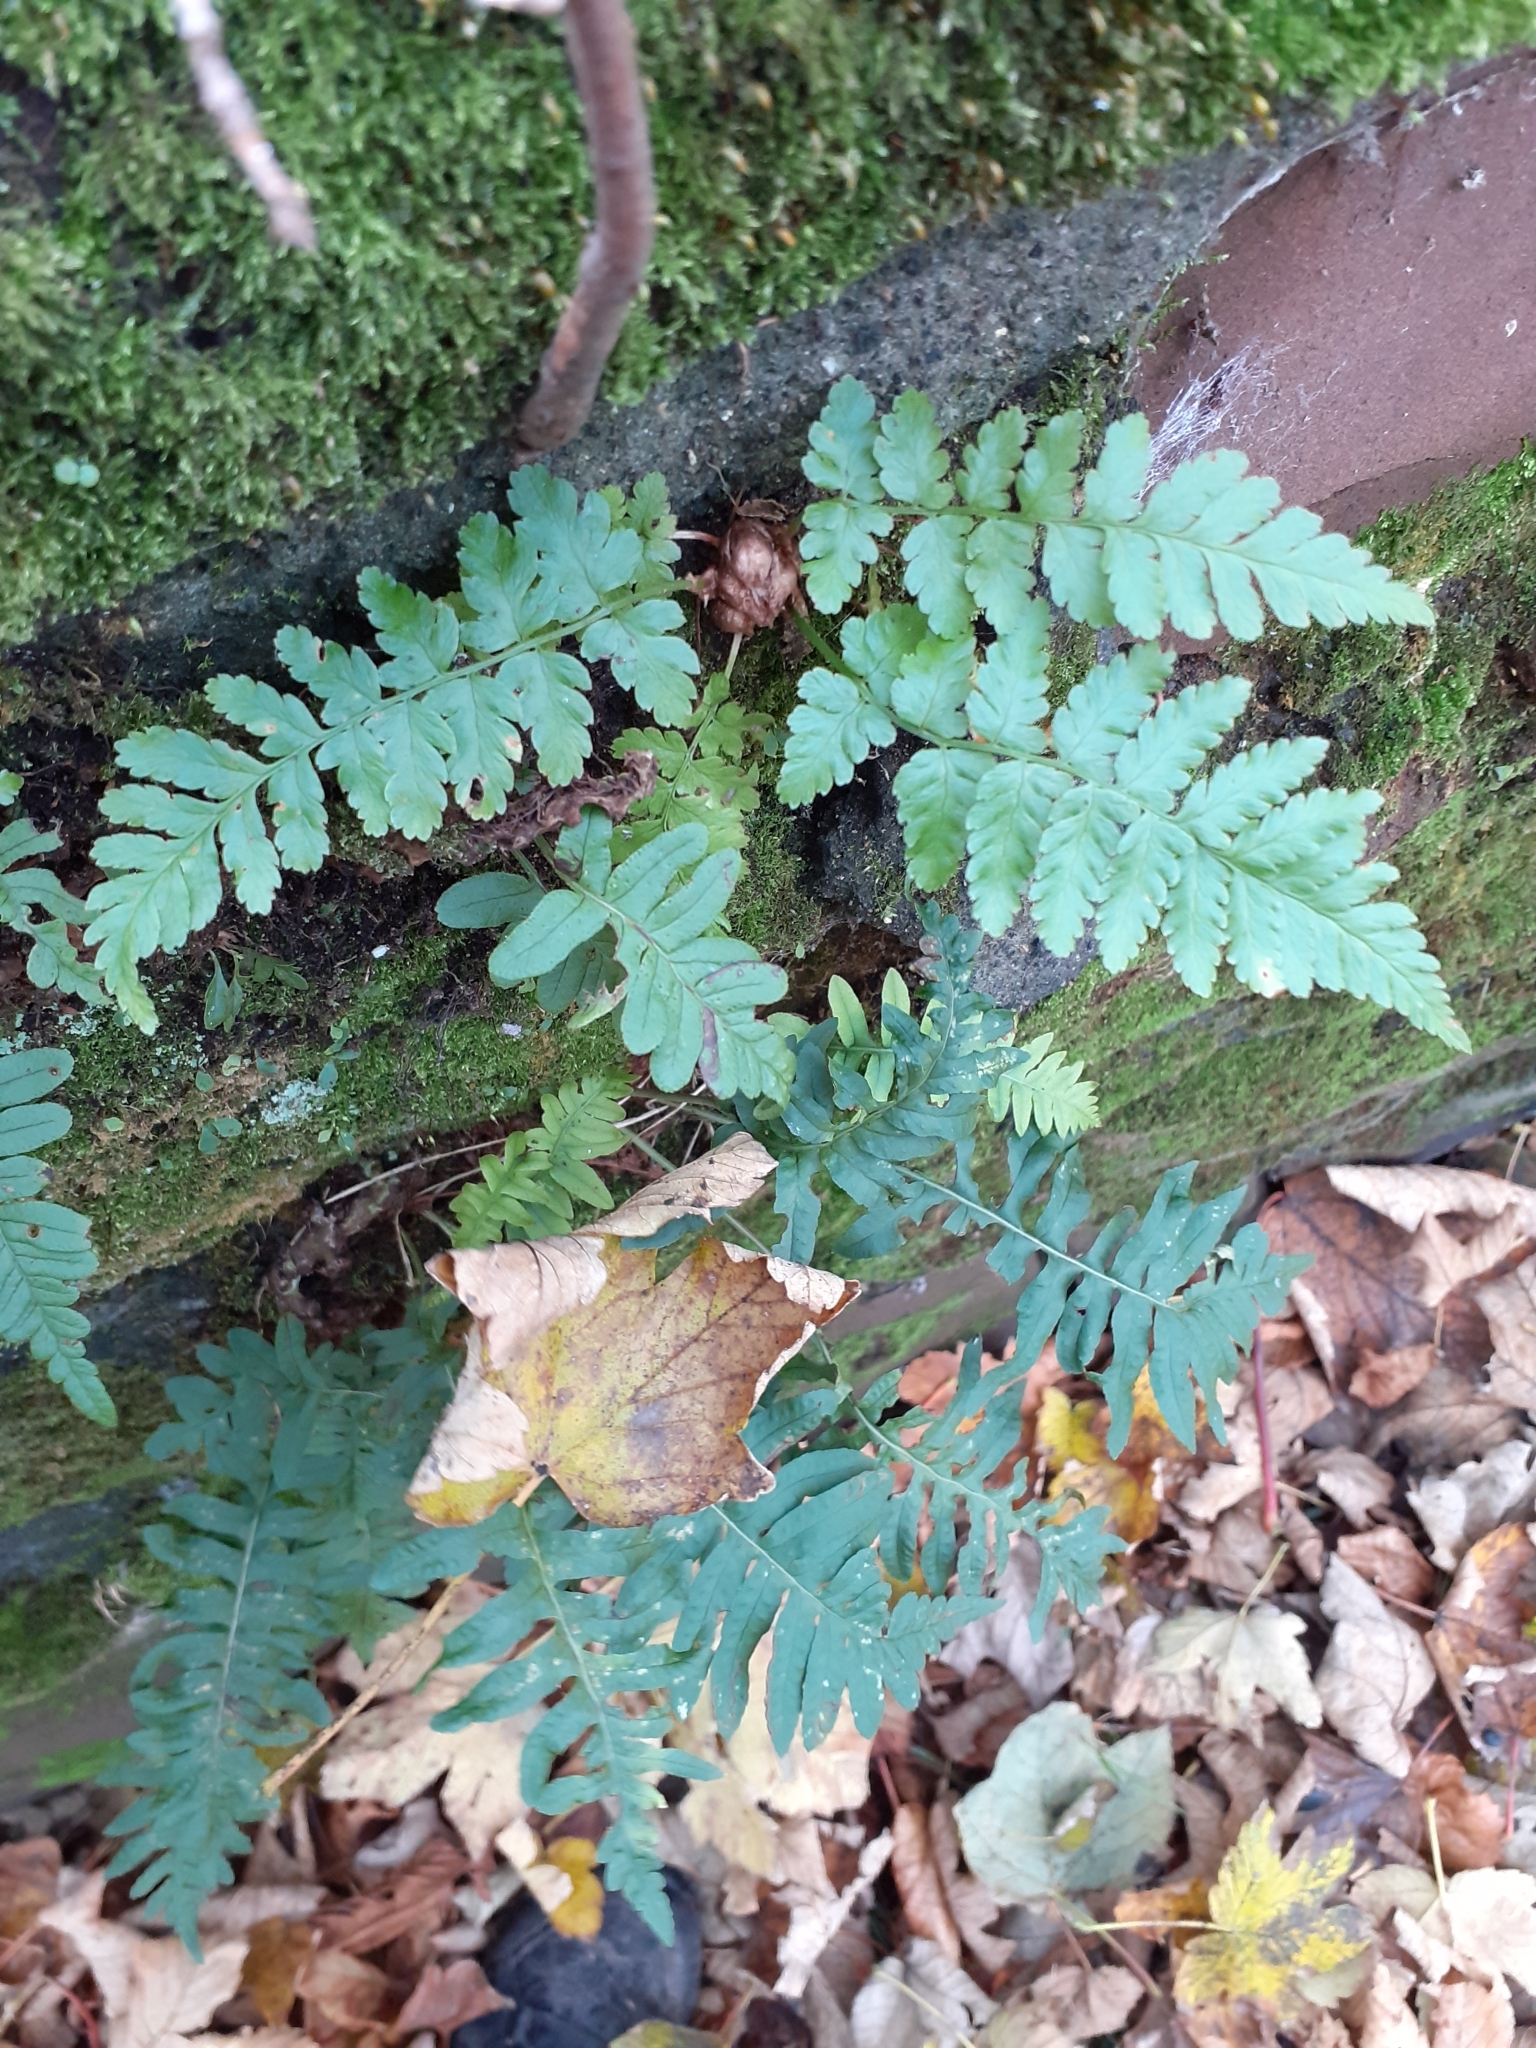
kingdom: Plantae
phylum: Tracheophyta
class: Polypodiopsida
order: Polypodiales
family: Dryopteridaceae
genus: Dryopteris
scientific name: Dryopteris filix-mas
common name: Male fern
